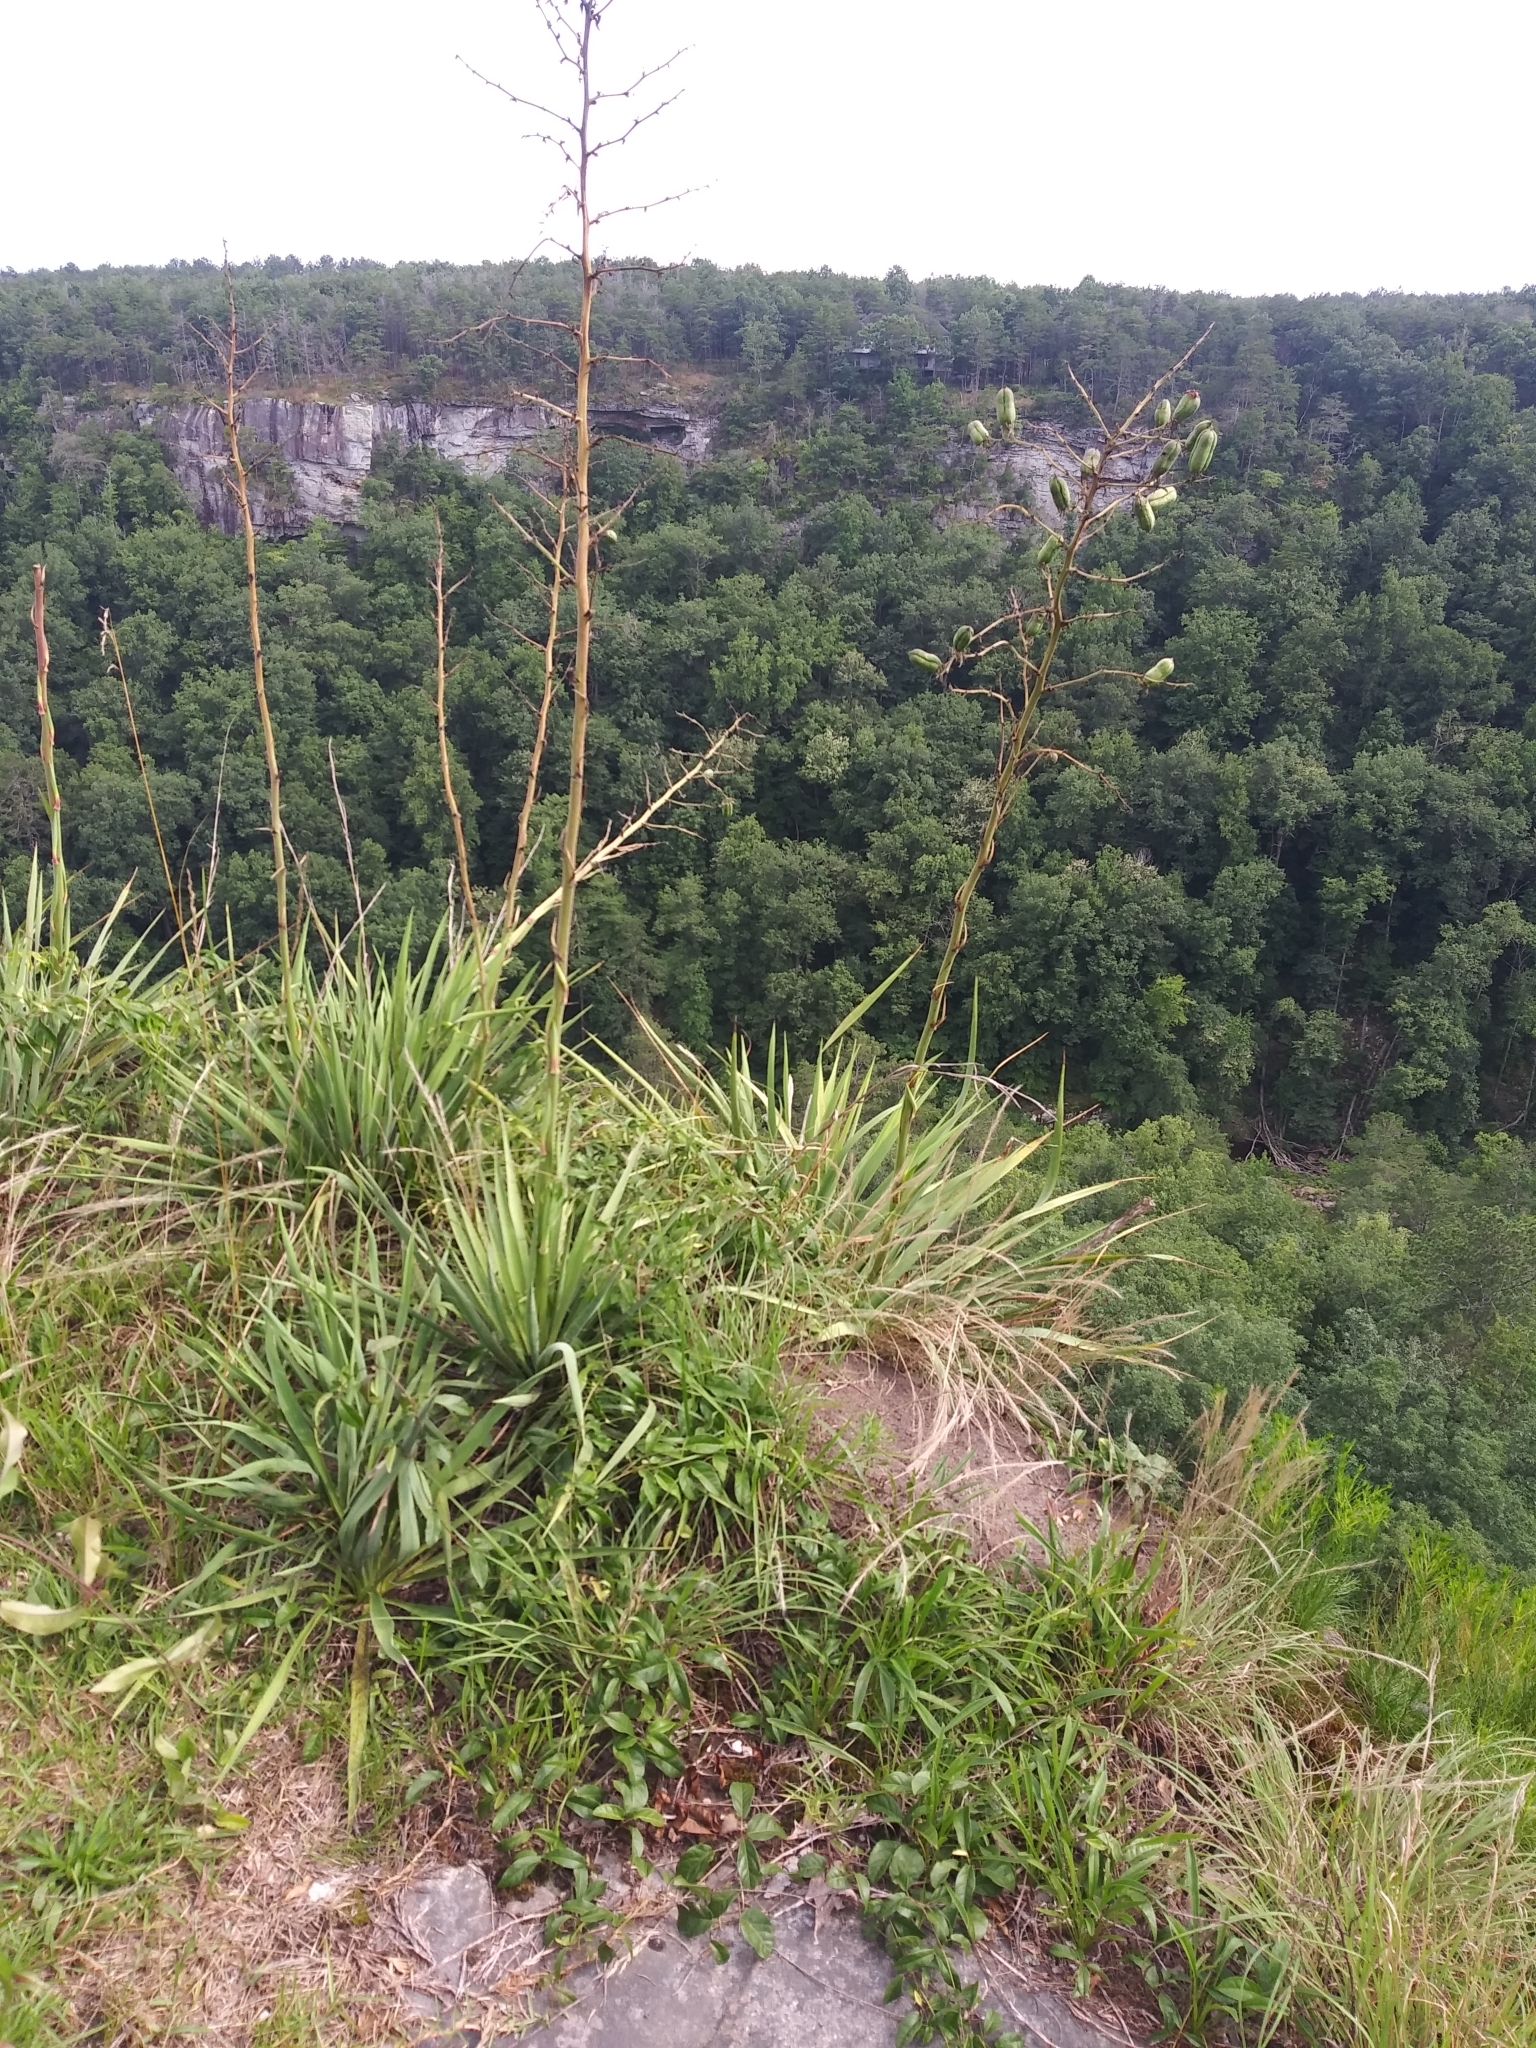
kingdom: Plantae
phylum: Tracheophyta
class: Liliopsida
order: Asparagales
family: Asparagaceae
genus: Yucca
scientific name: Yucca filamentosa
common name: Adam's-needle
